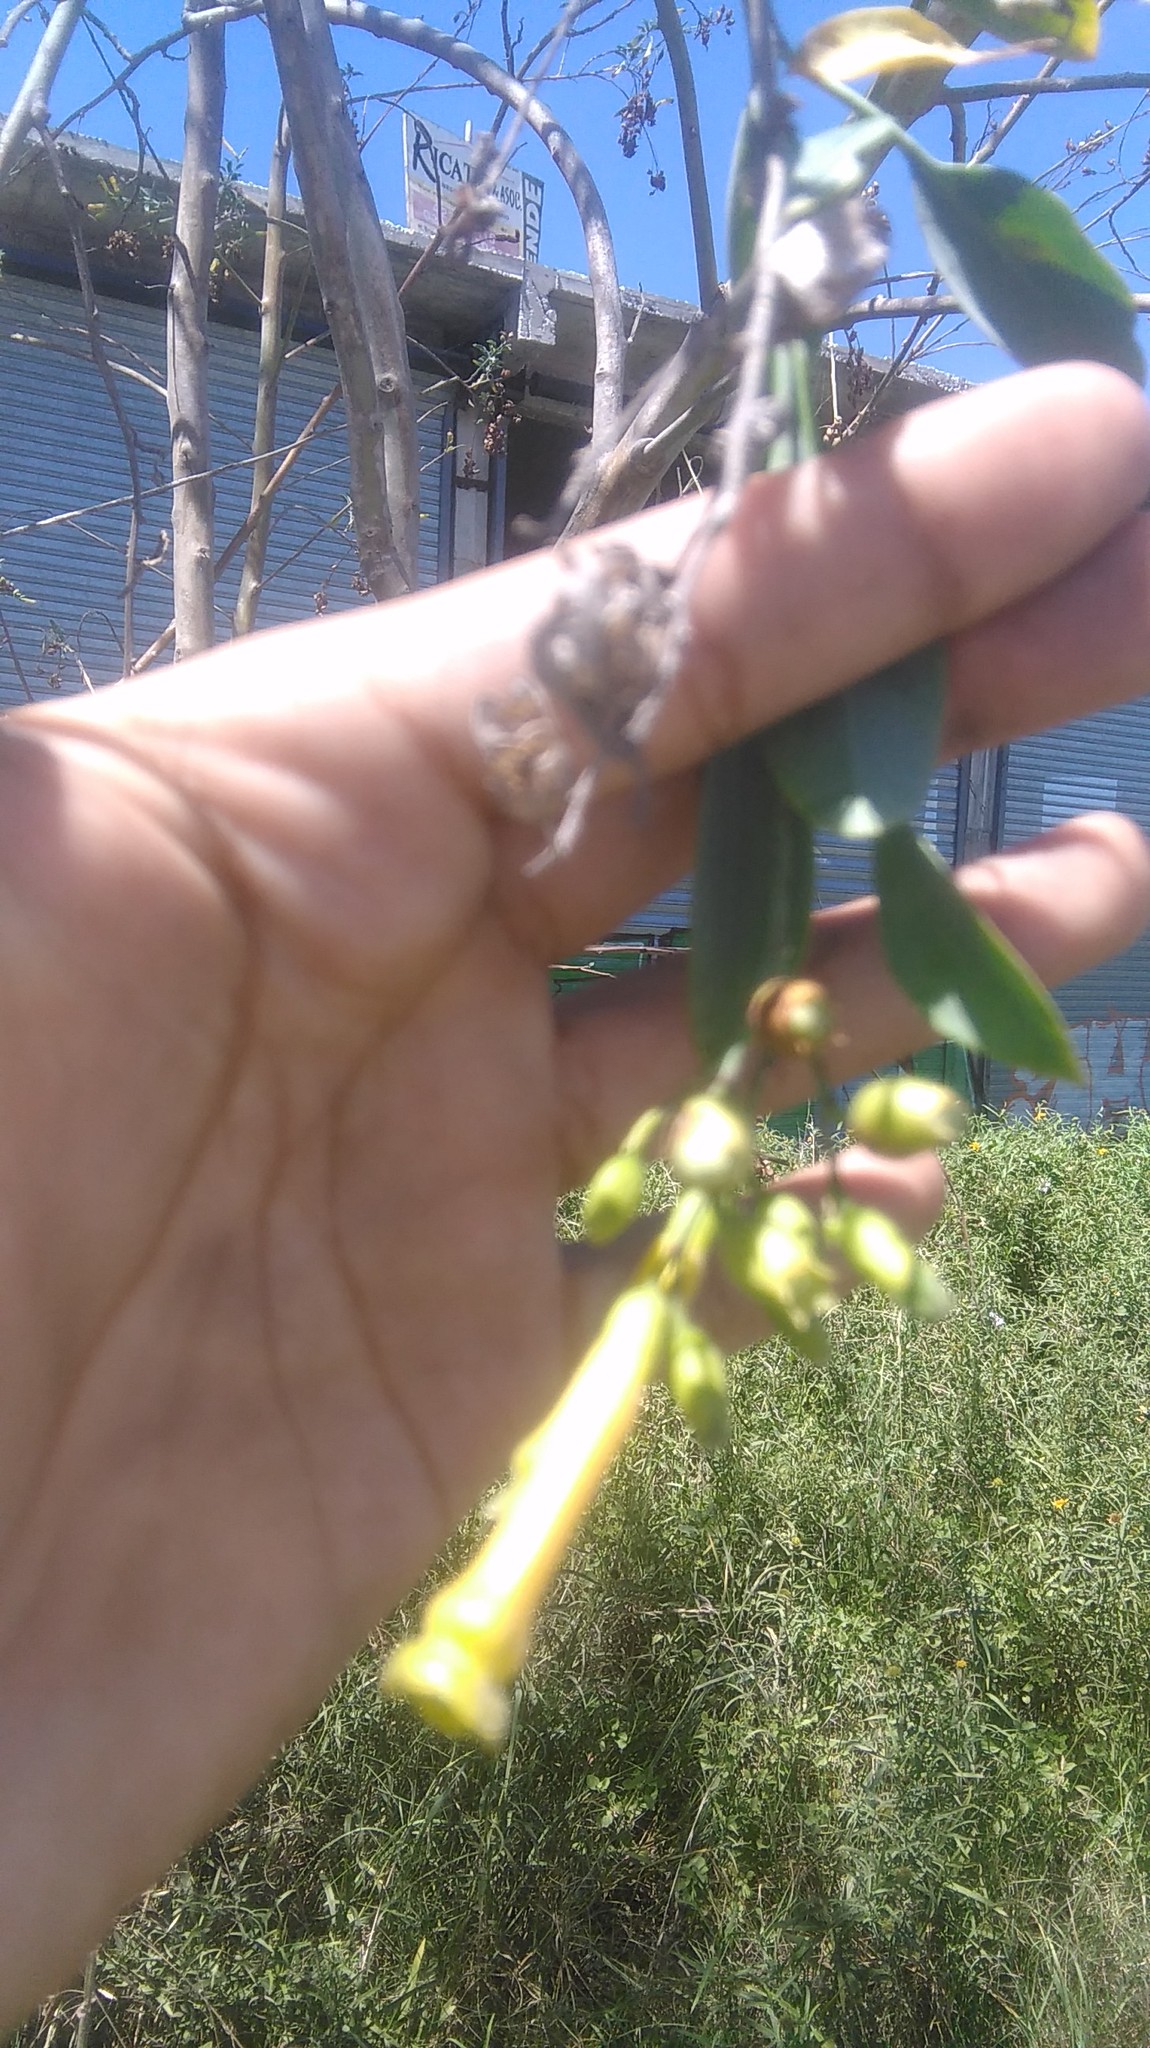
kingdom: Plantae
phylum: Tracheophyta
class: Magnoliopsida
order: Solanales
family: Solanaceae
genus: Nicotiana
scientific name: Nicotiana glauca
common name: Tree tobacco
